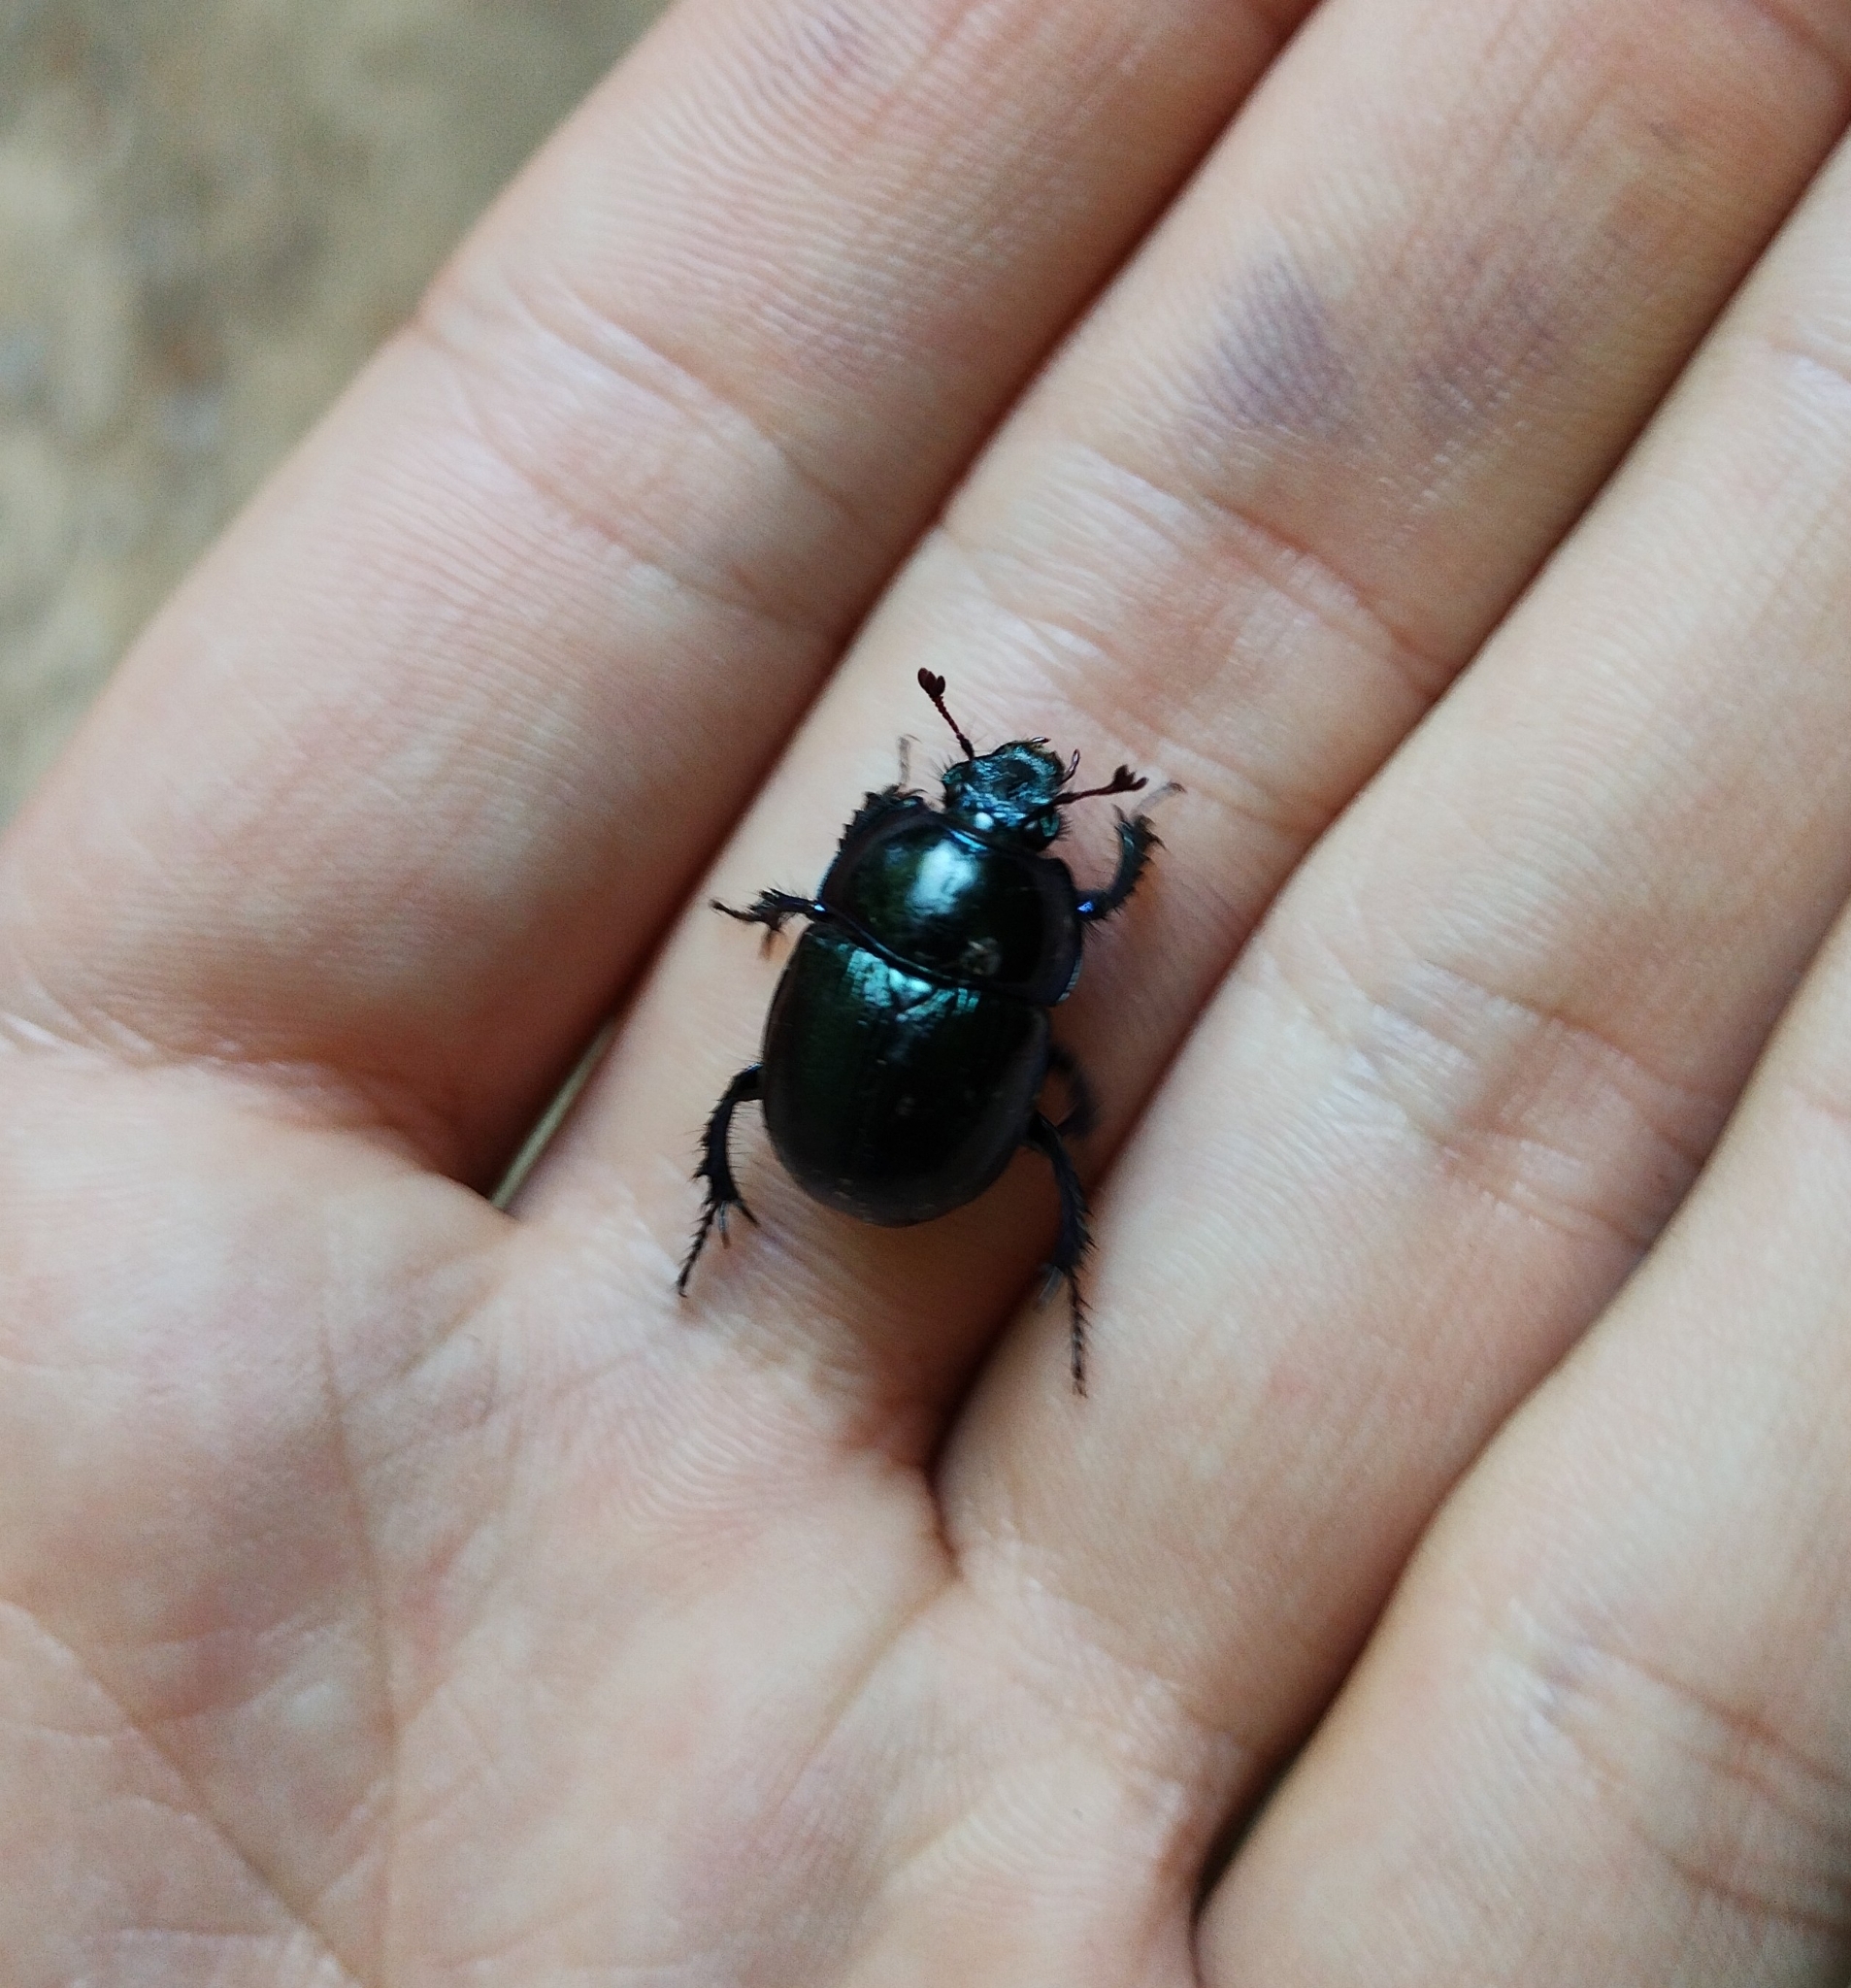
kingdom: Animalia
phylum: Arthropoda
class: Insecta
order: Coleoptera
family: Geotrupidae
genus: Anoplotrupes
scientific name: Anoplotrupes stercorosus
